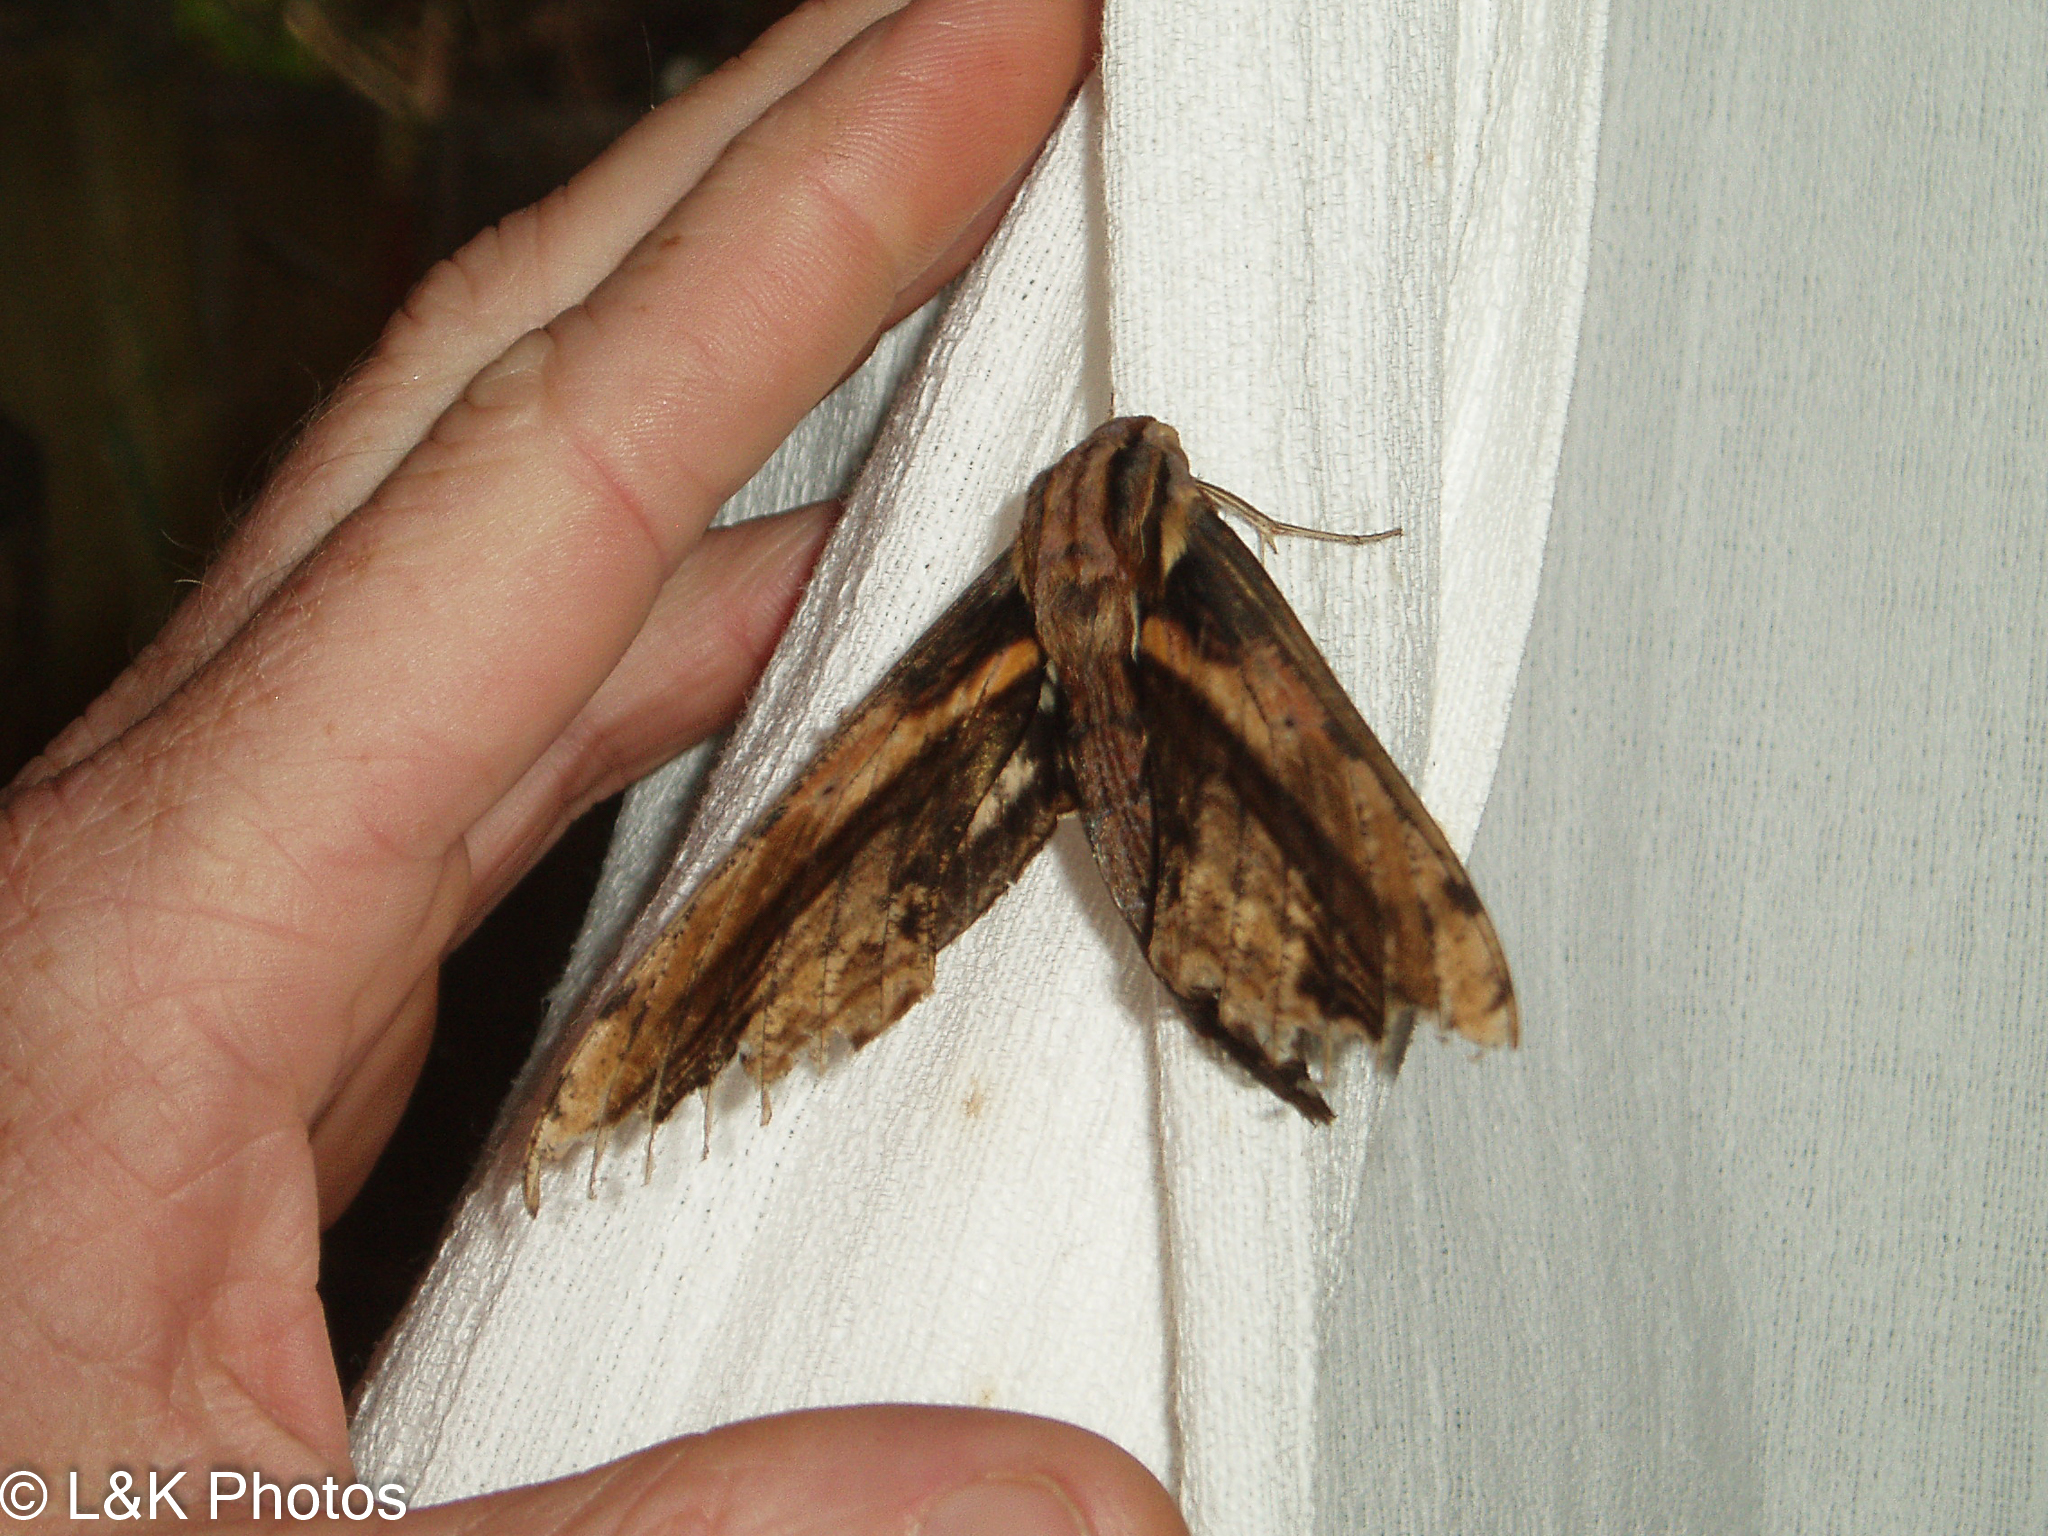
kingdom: Animalia
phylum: Arthropoda
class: Insecta
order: Lepidoptera
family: Sphingidae
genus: Xylophanes
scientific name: Xylophanes ceratomioides
